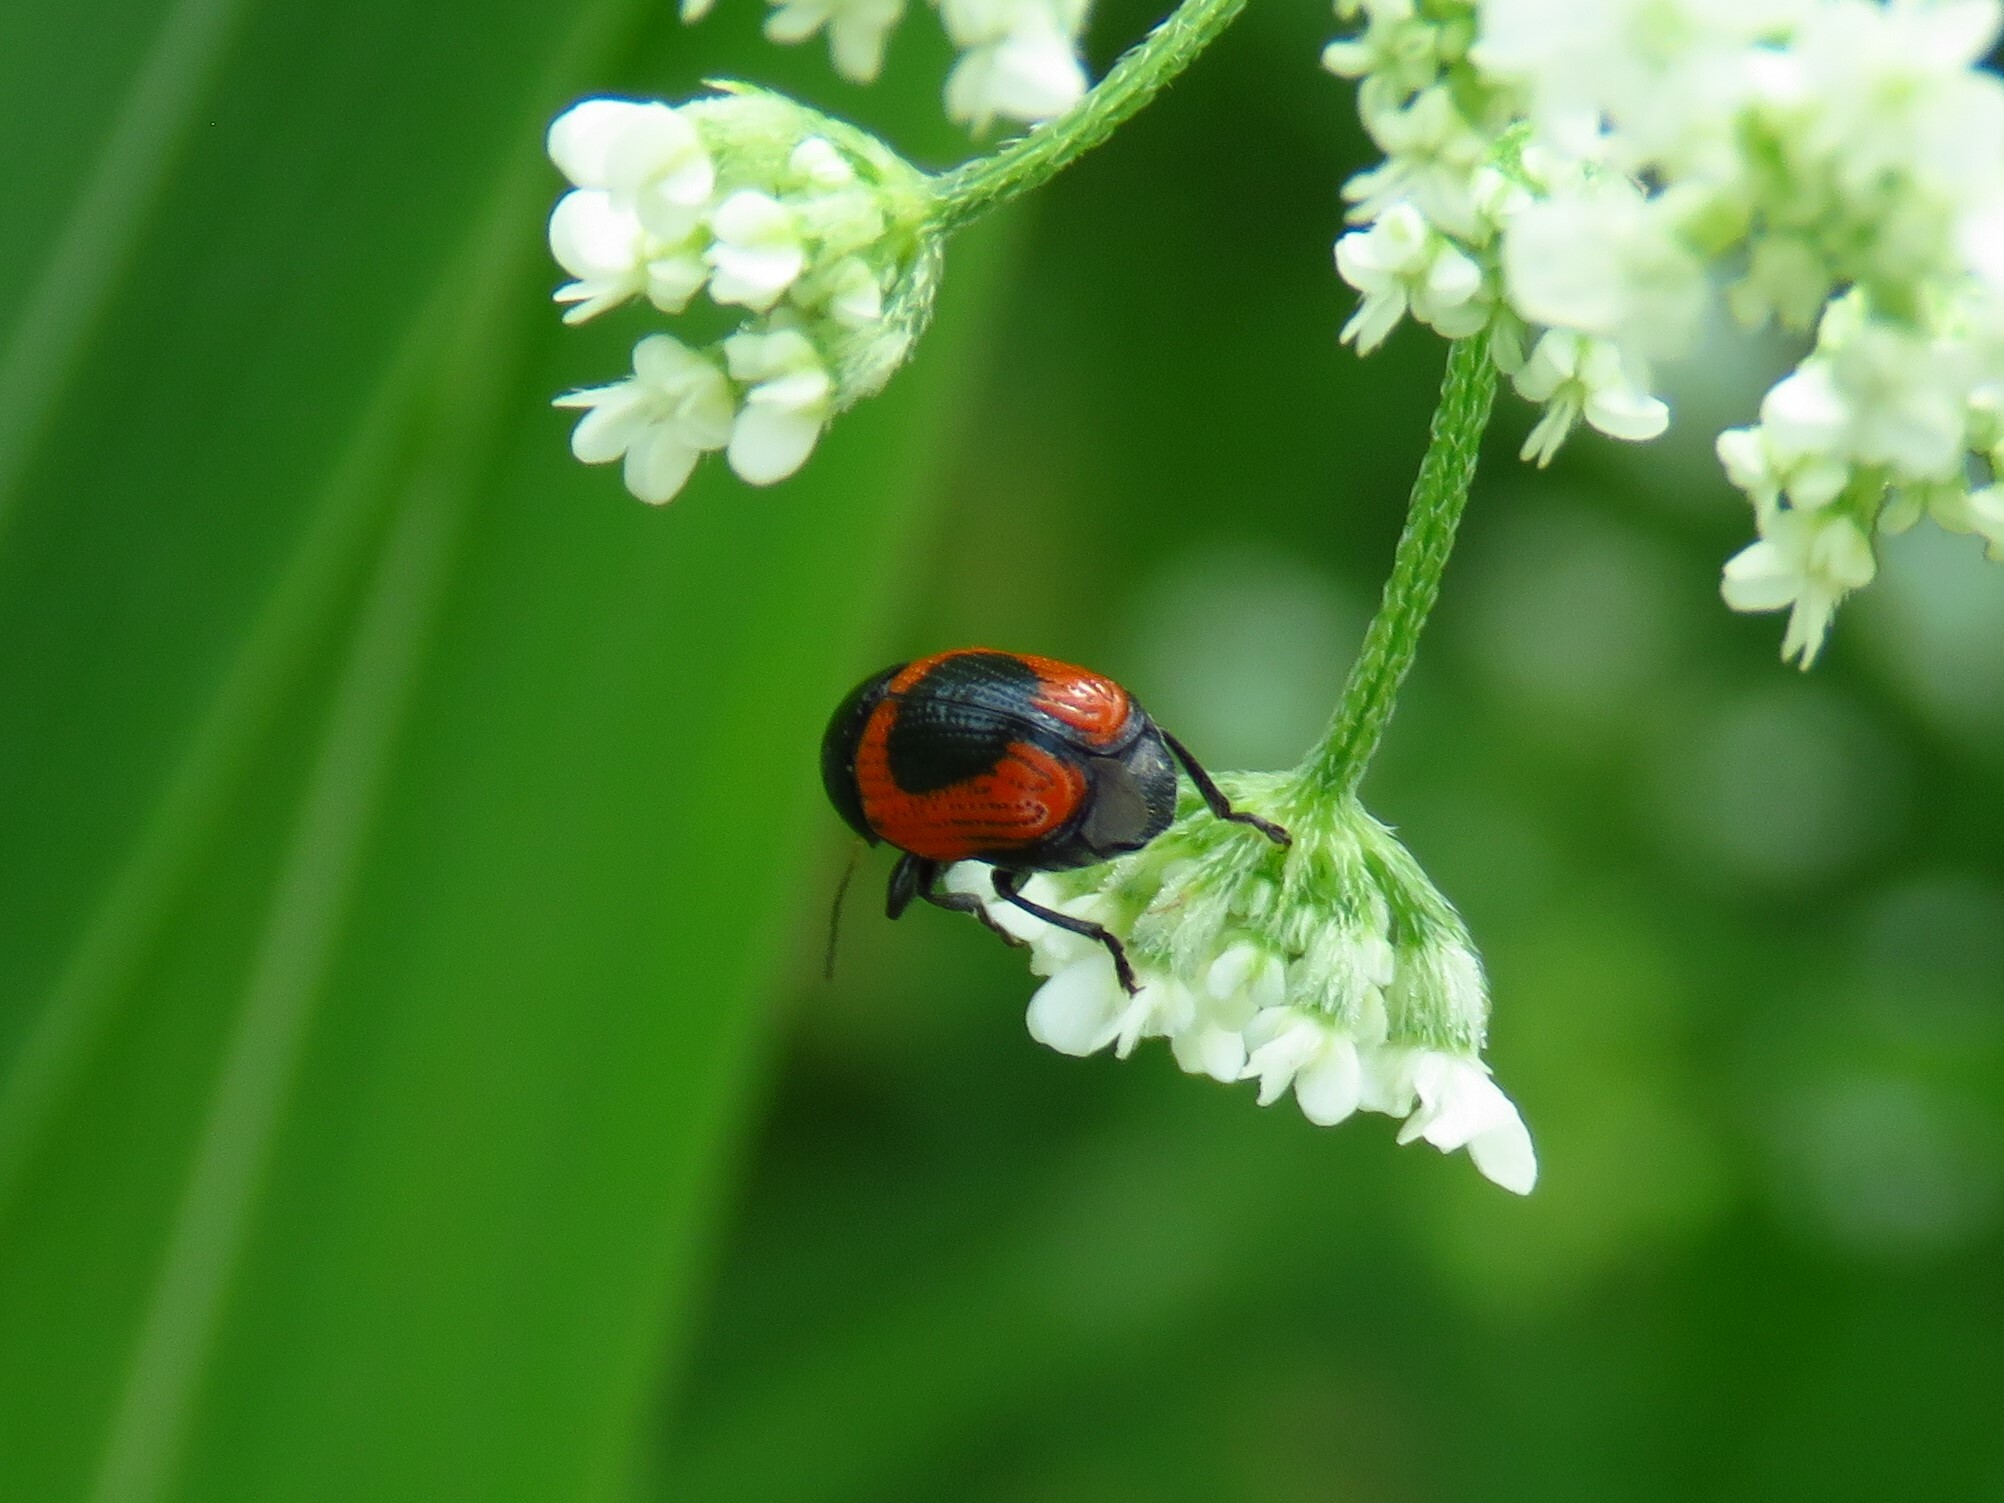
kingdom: Animalia
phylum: Arthropoda
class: Insecta
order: Coleoptera
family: Chrysomelidae
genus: Cryptocephalus
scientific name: Cryptocephalus notatus
